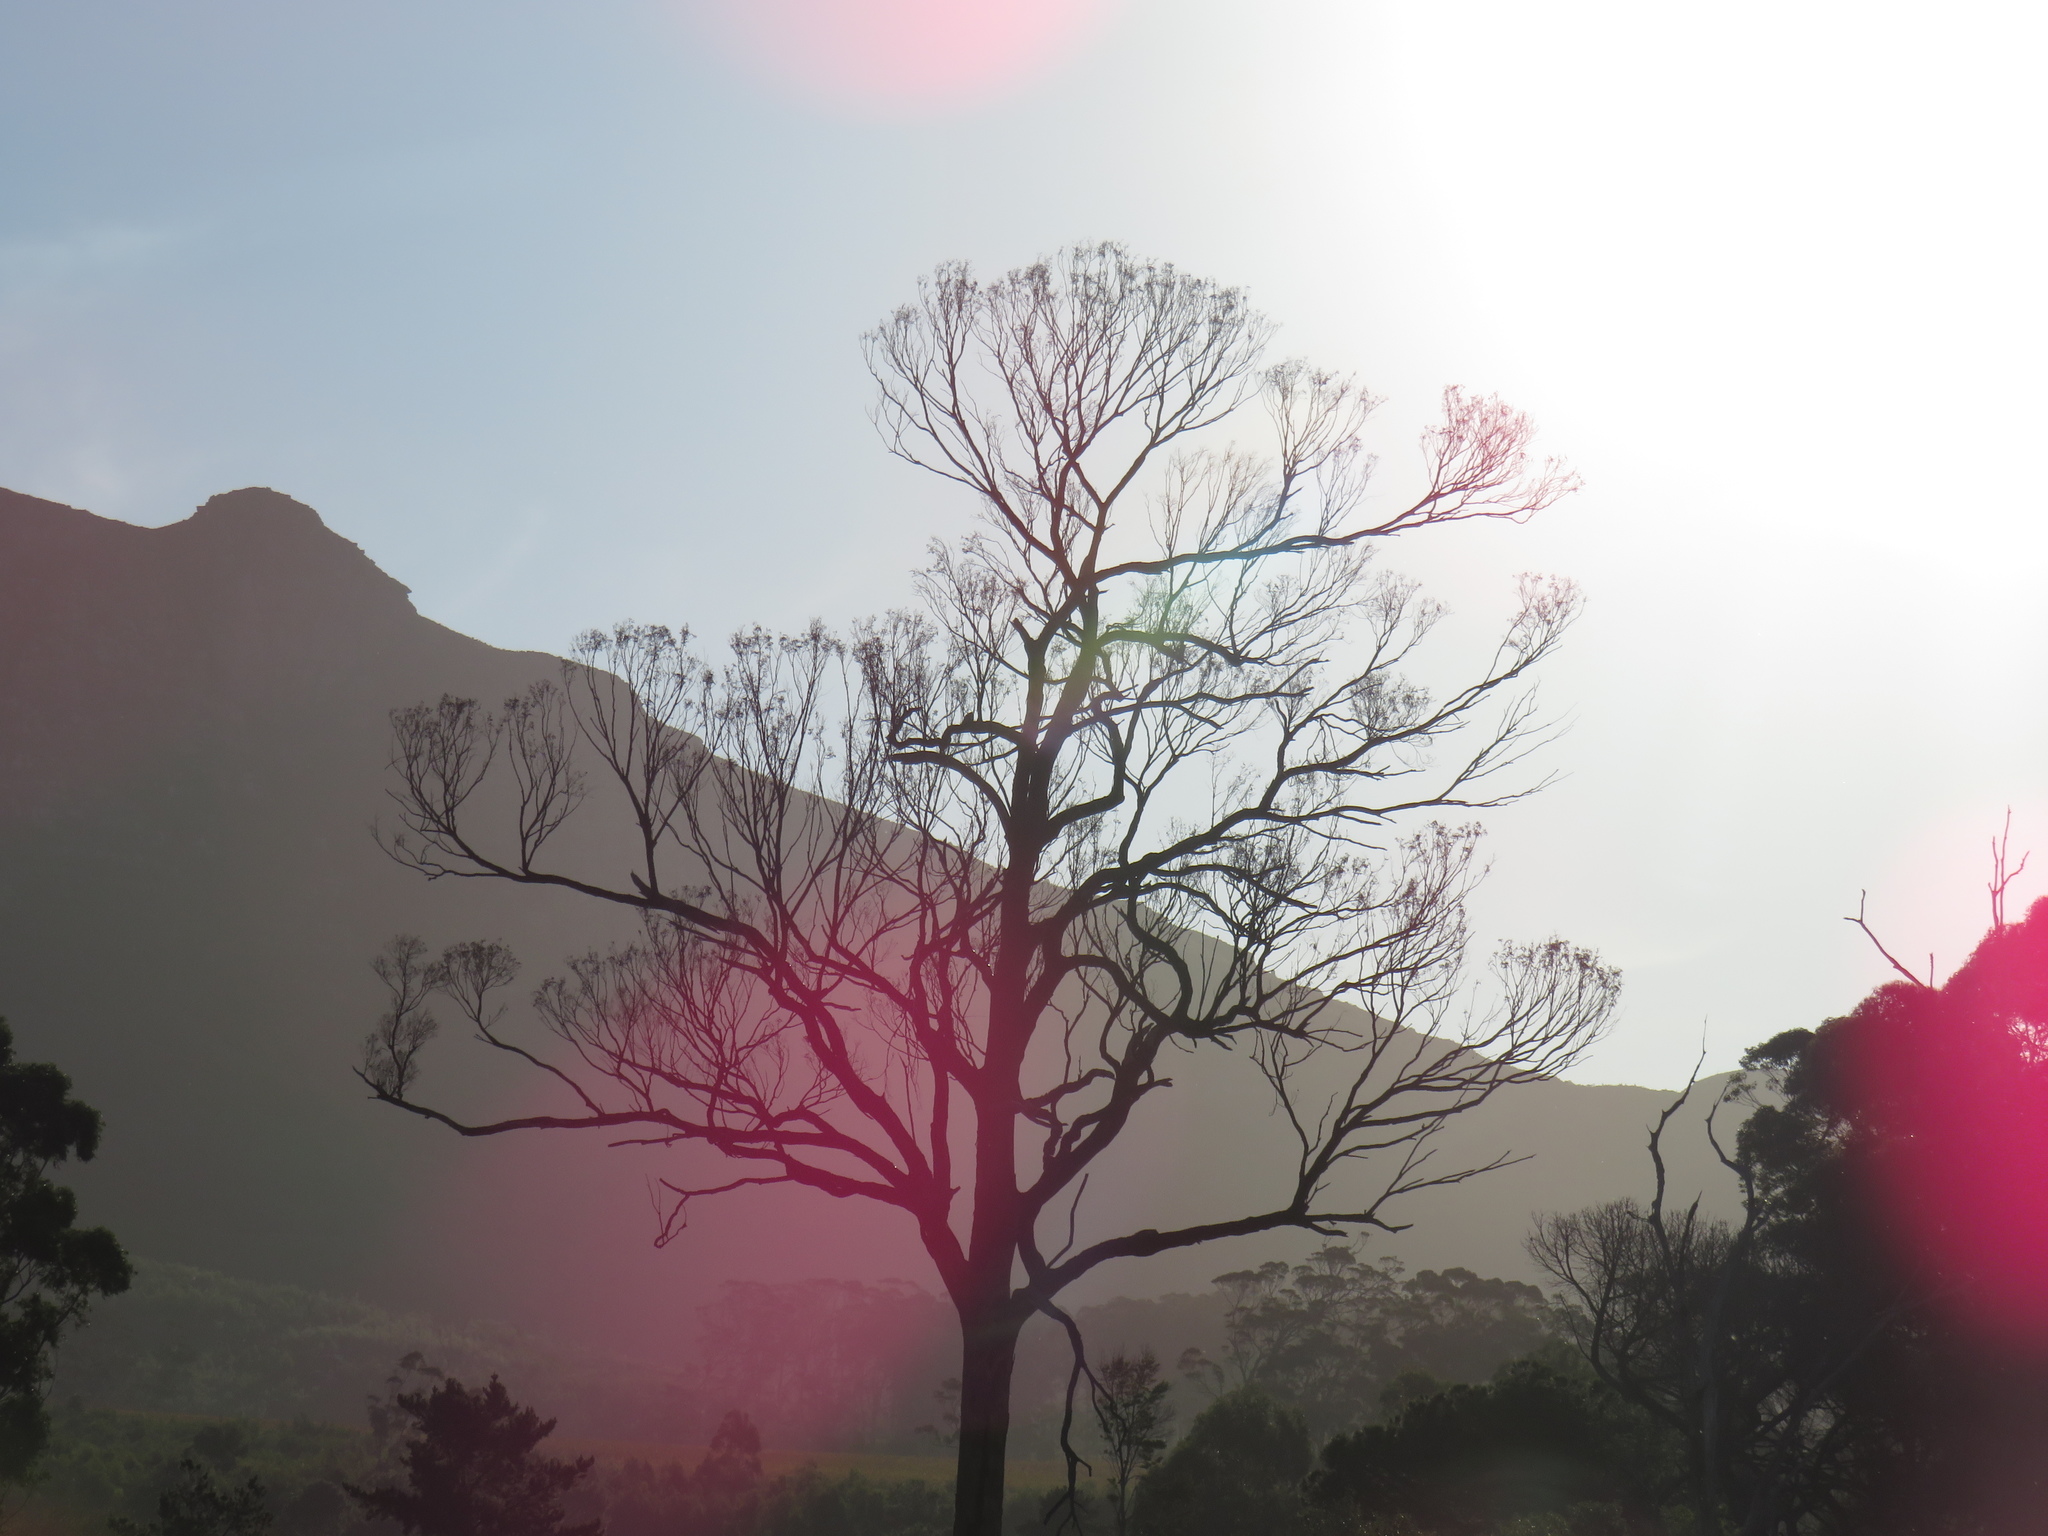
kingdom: Plantae
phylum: Tracheophyta
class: Magnoliopsida
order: Myrtales
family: Myrtaceae
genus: Eucalyptus
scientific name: Eucalyptus diversicolor
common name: Karri
